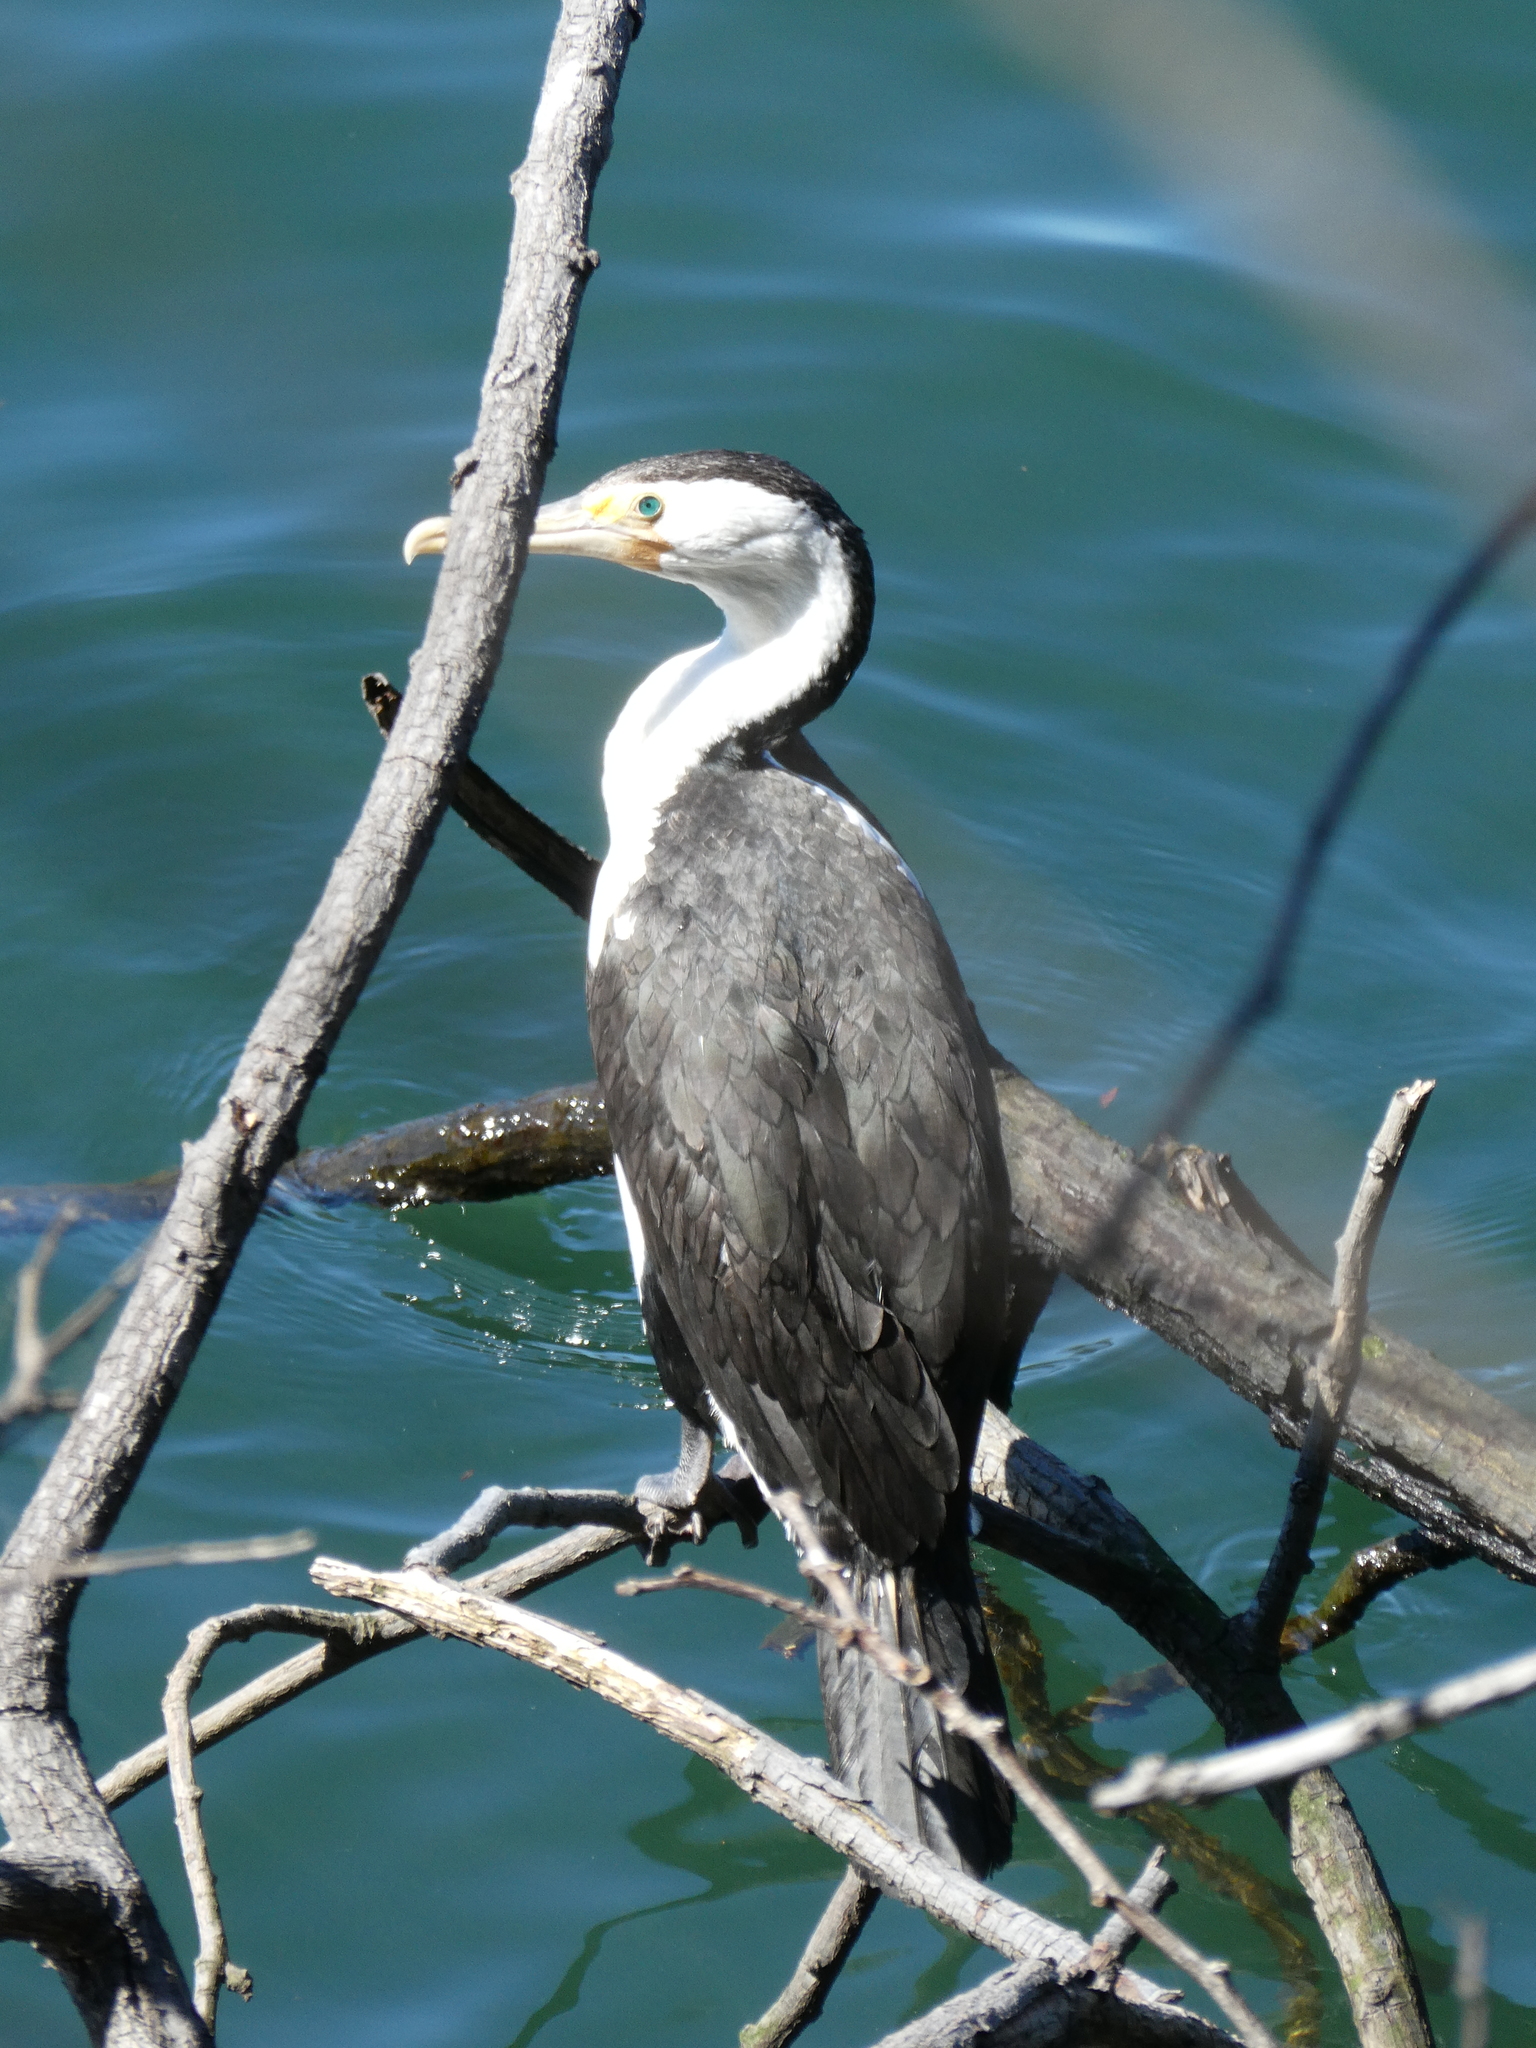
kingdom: Animalia
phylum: Chordata
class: Aves
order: Suliformes
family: Phalacrocoracidae
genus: Phalacrocorax
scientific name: Phalacrocorax varius
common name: Pied cormorant
